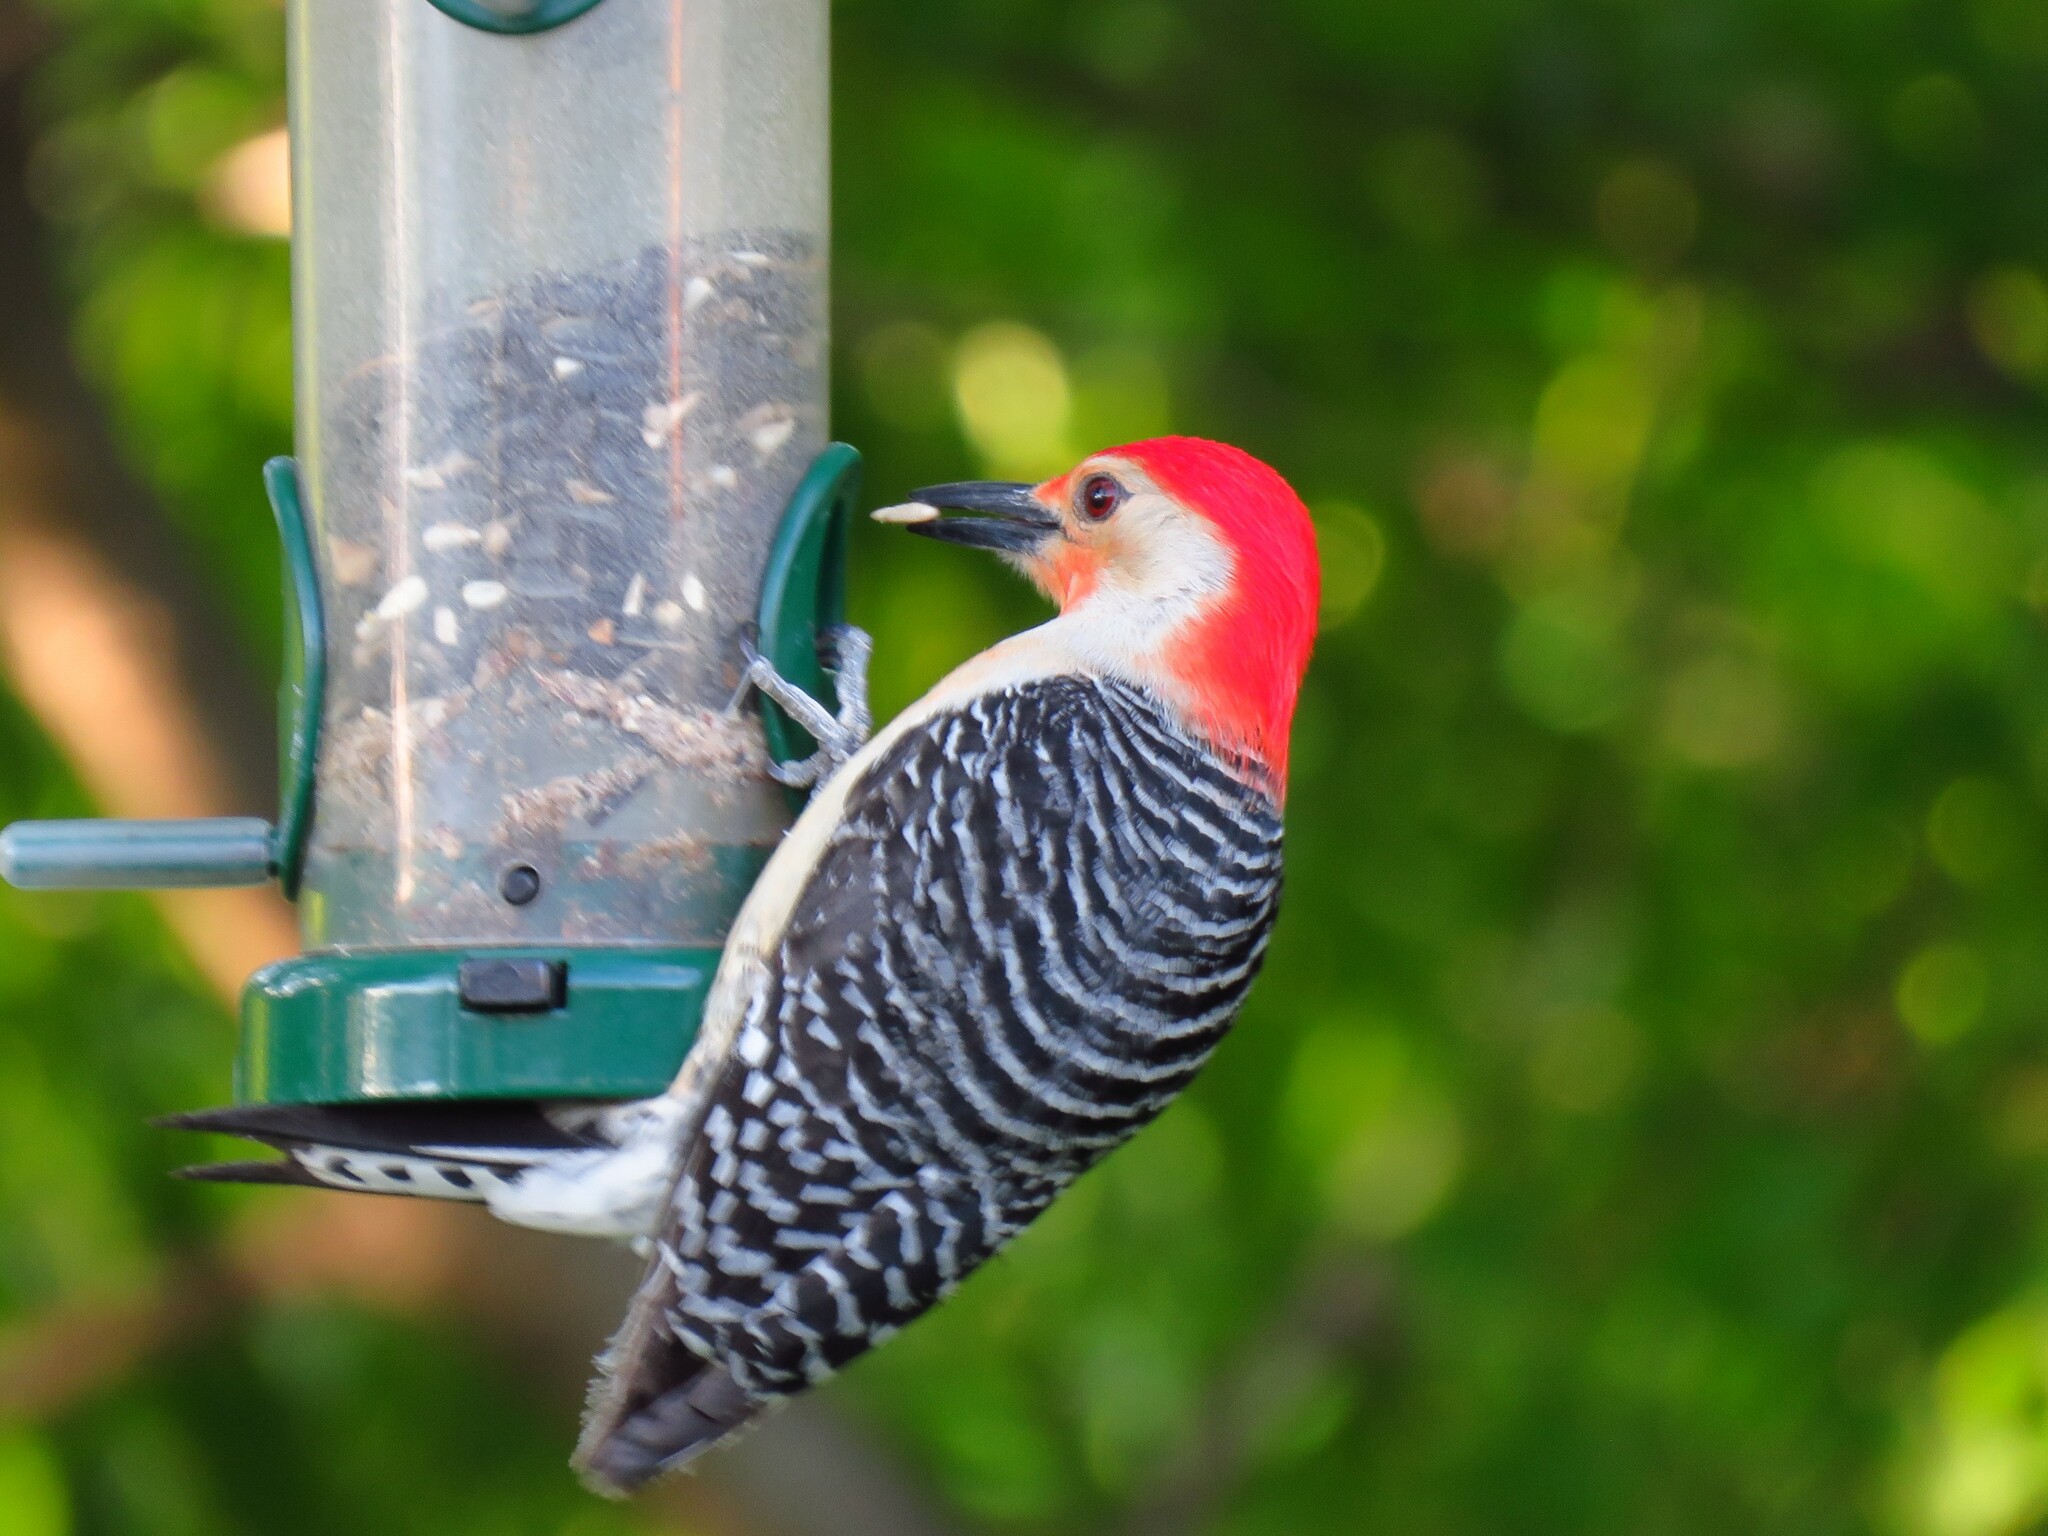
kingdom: Animalia
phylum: Chordata
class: Aves
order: Piciformes
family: Picidae
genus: Melanerpes
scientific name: Melanerpes carolinus
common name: Red-bellied woodpecker
